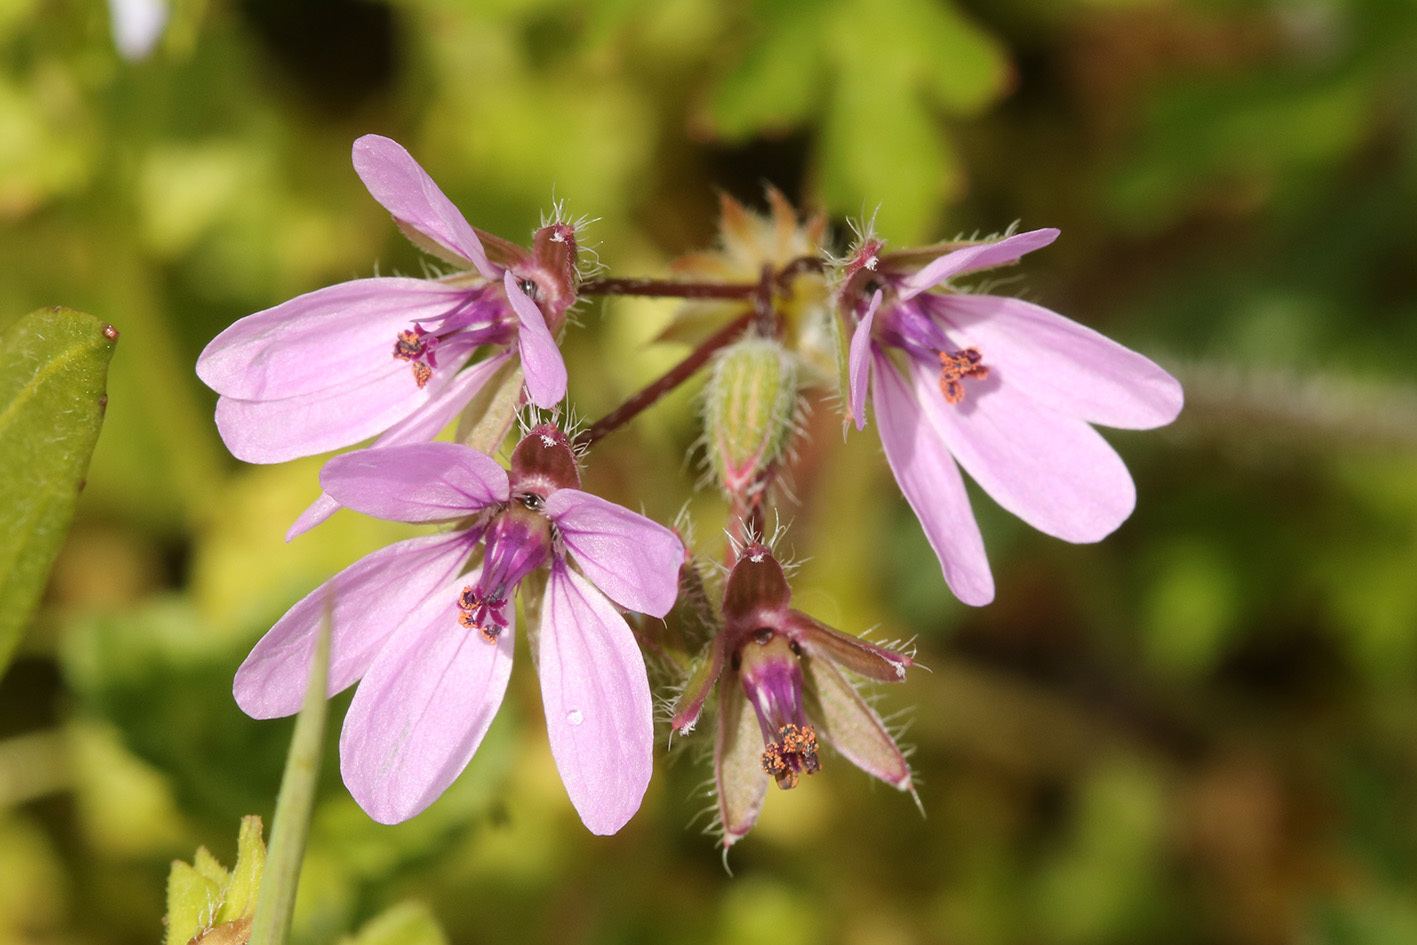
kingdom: Plantae
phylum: Tracheophyta
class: Magnoliopsida
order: Geraniales
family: Geraniaceae
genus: Erodium
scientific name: Erodium cicutarium
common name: Common stork's-bill
